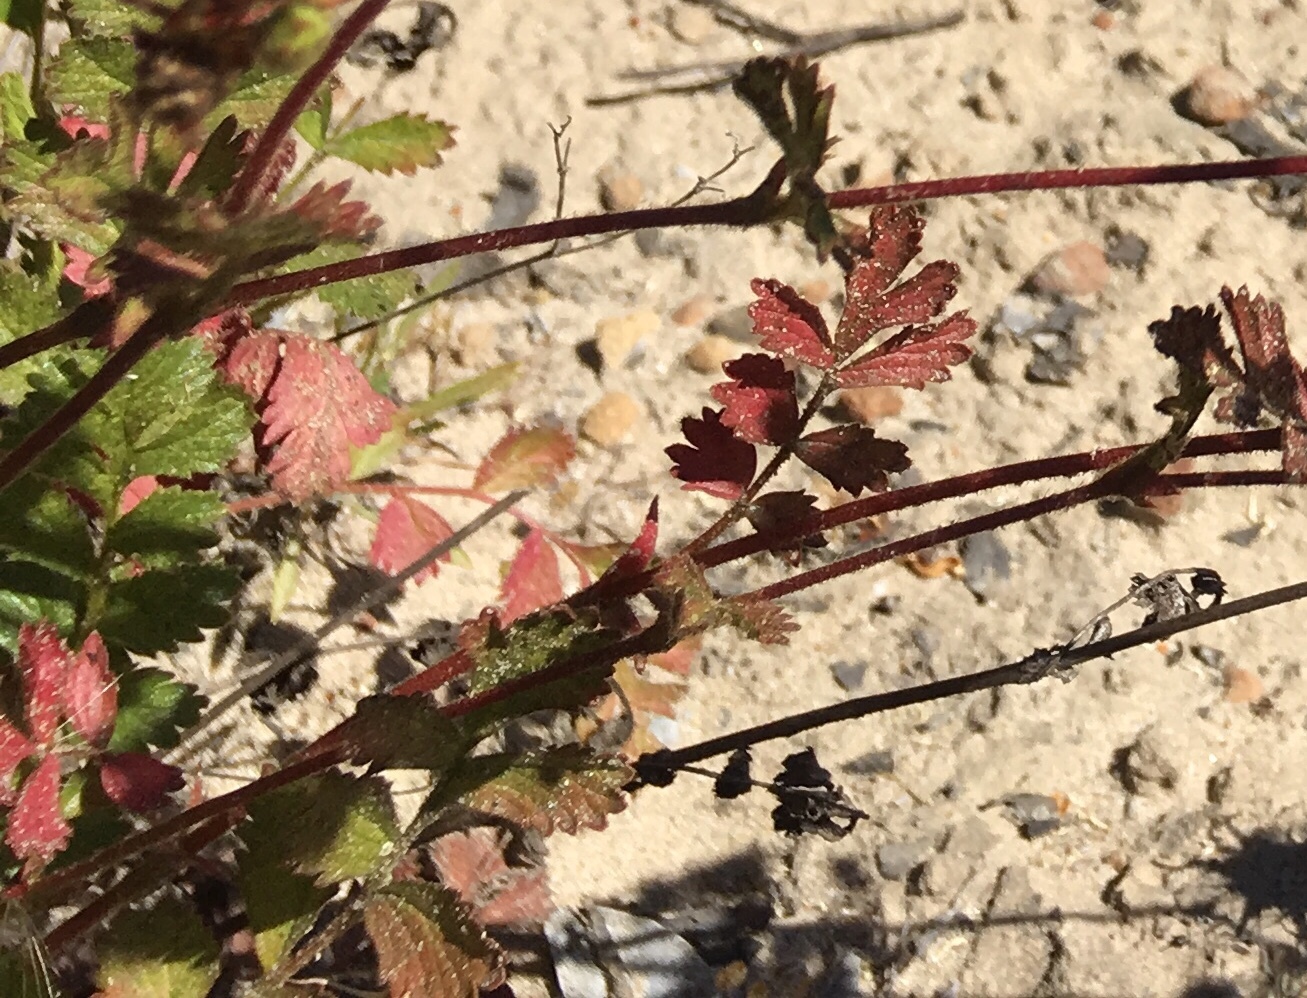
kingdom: Plantae
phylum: Tracheophyta
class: Magnoliopsida
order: Rosales
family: Rosaceae
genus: Potentilla
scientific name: Potentilla
